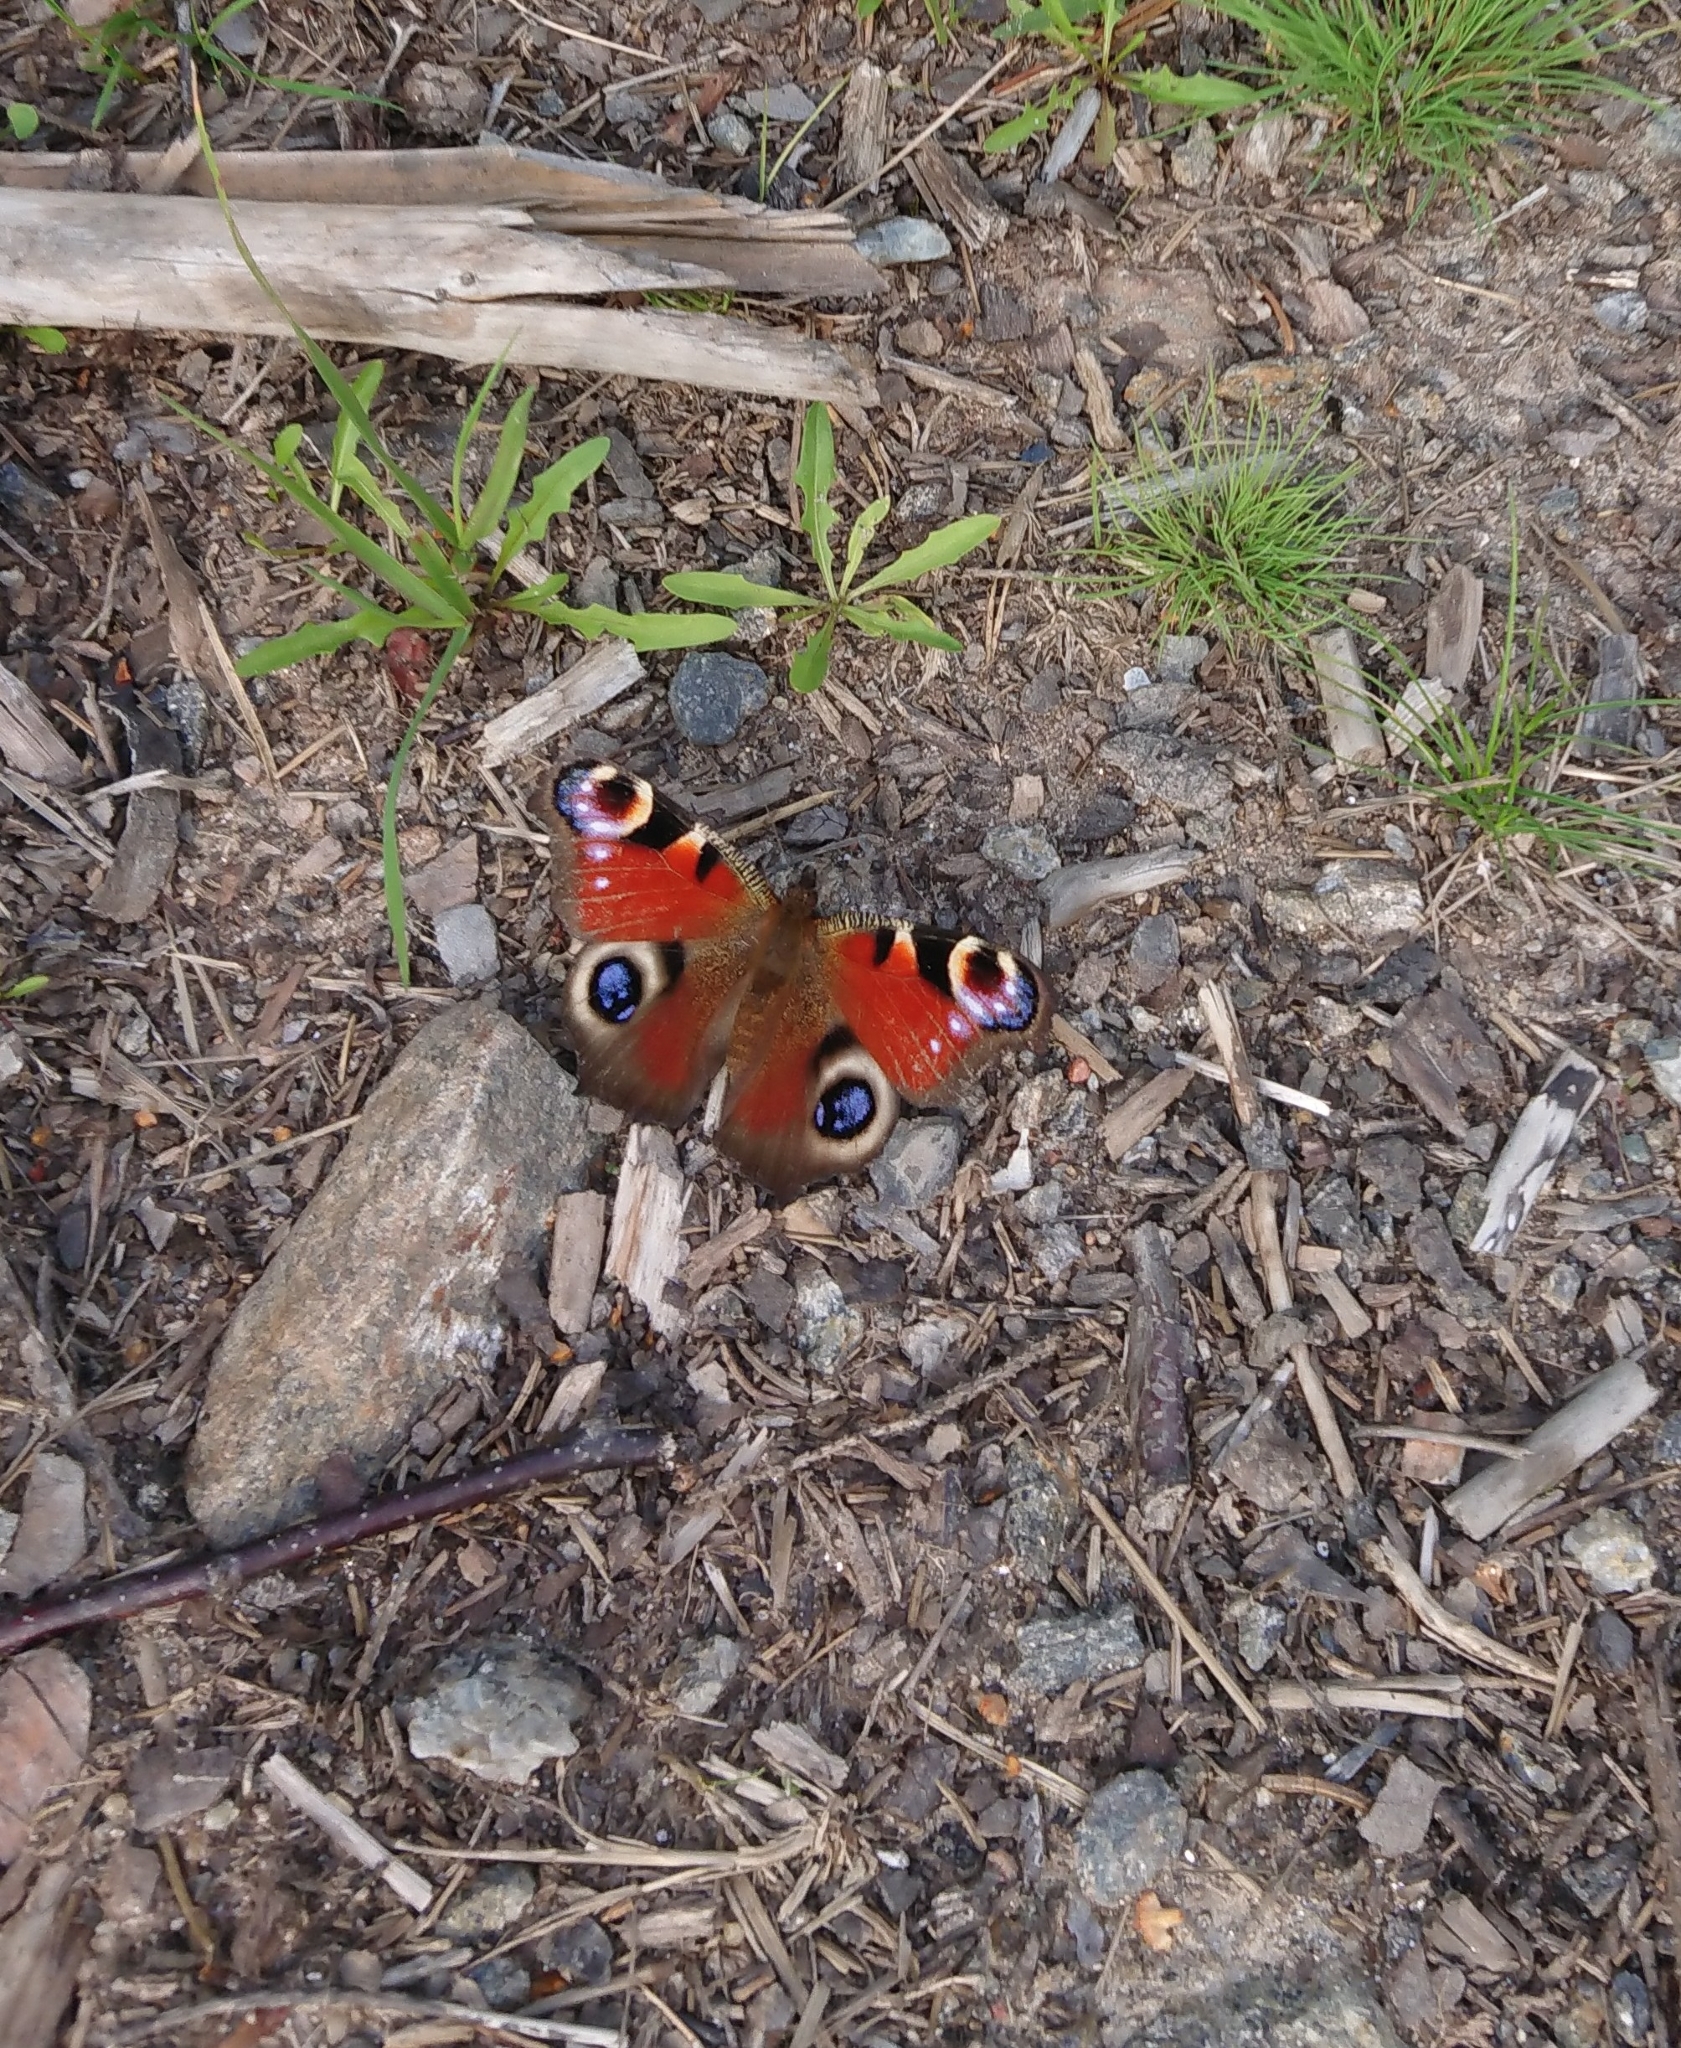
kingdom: Animalia
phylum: Arthropoda
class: Insecta
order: Lepidoptera
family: Nymphalidae
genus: Aglais
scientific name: Aglais io
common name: Peacock
